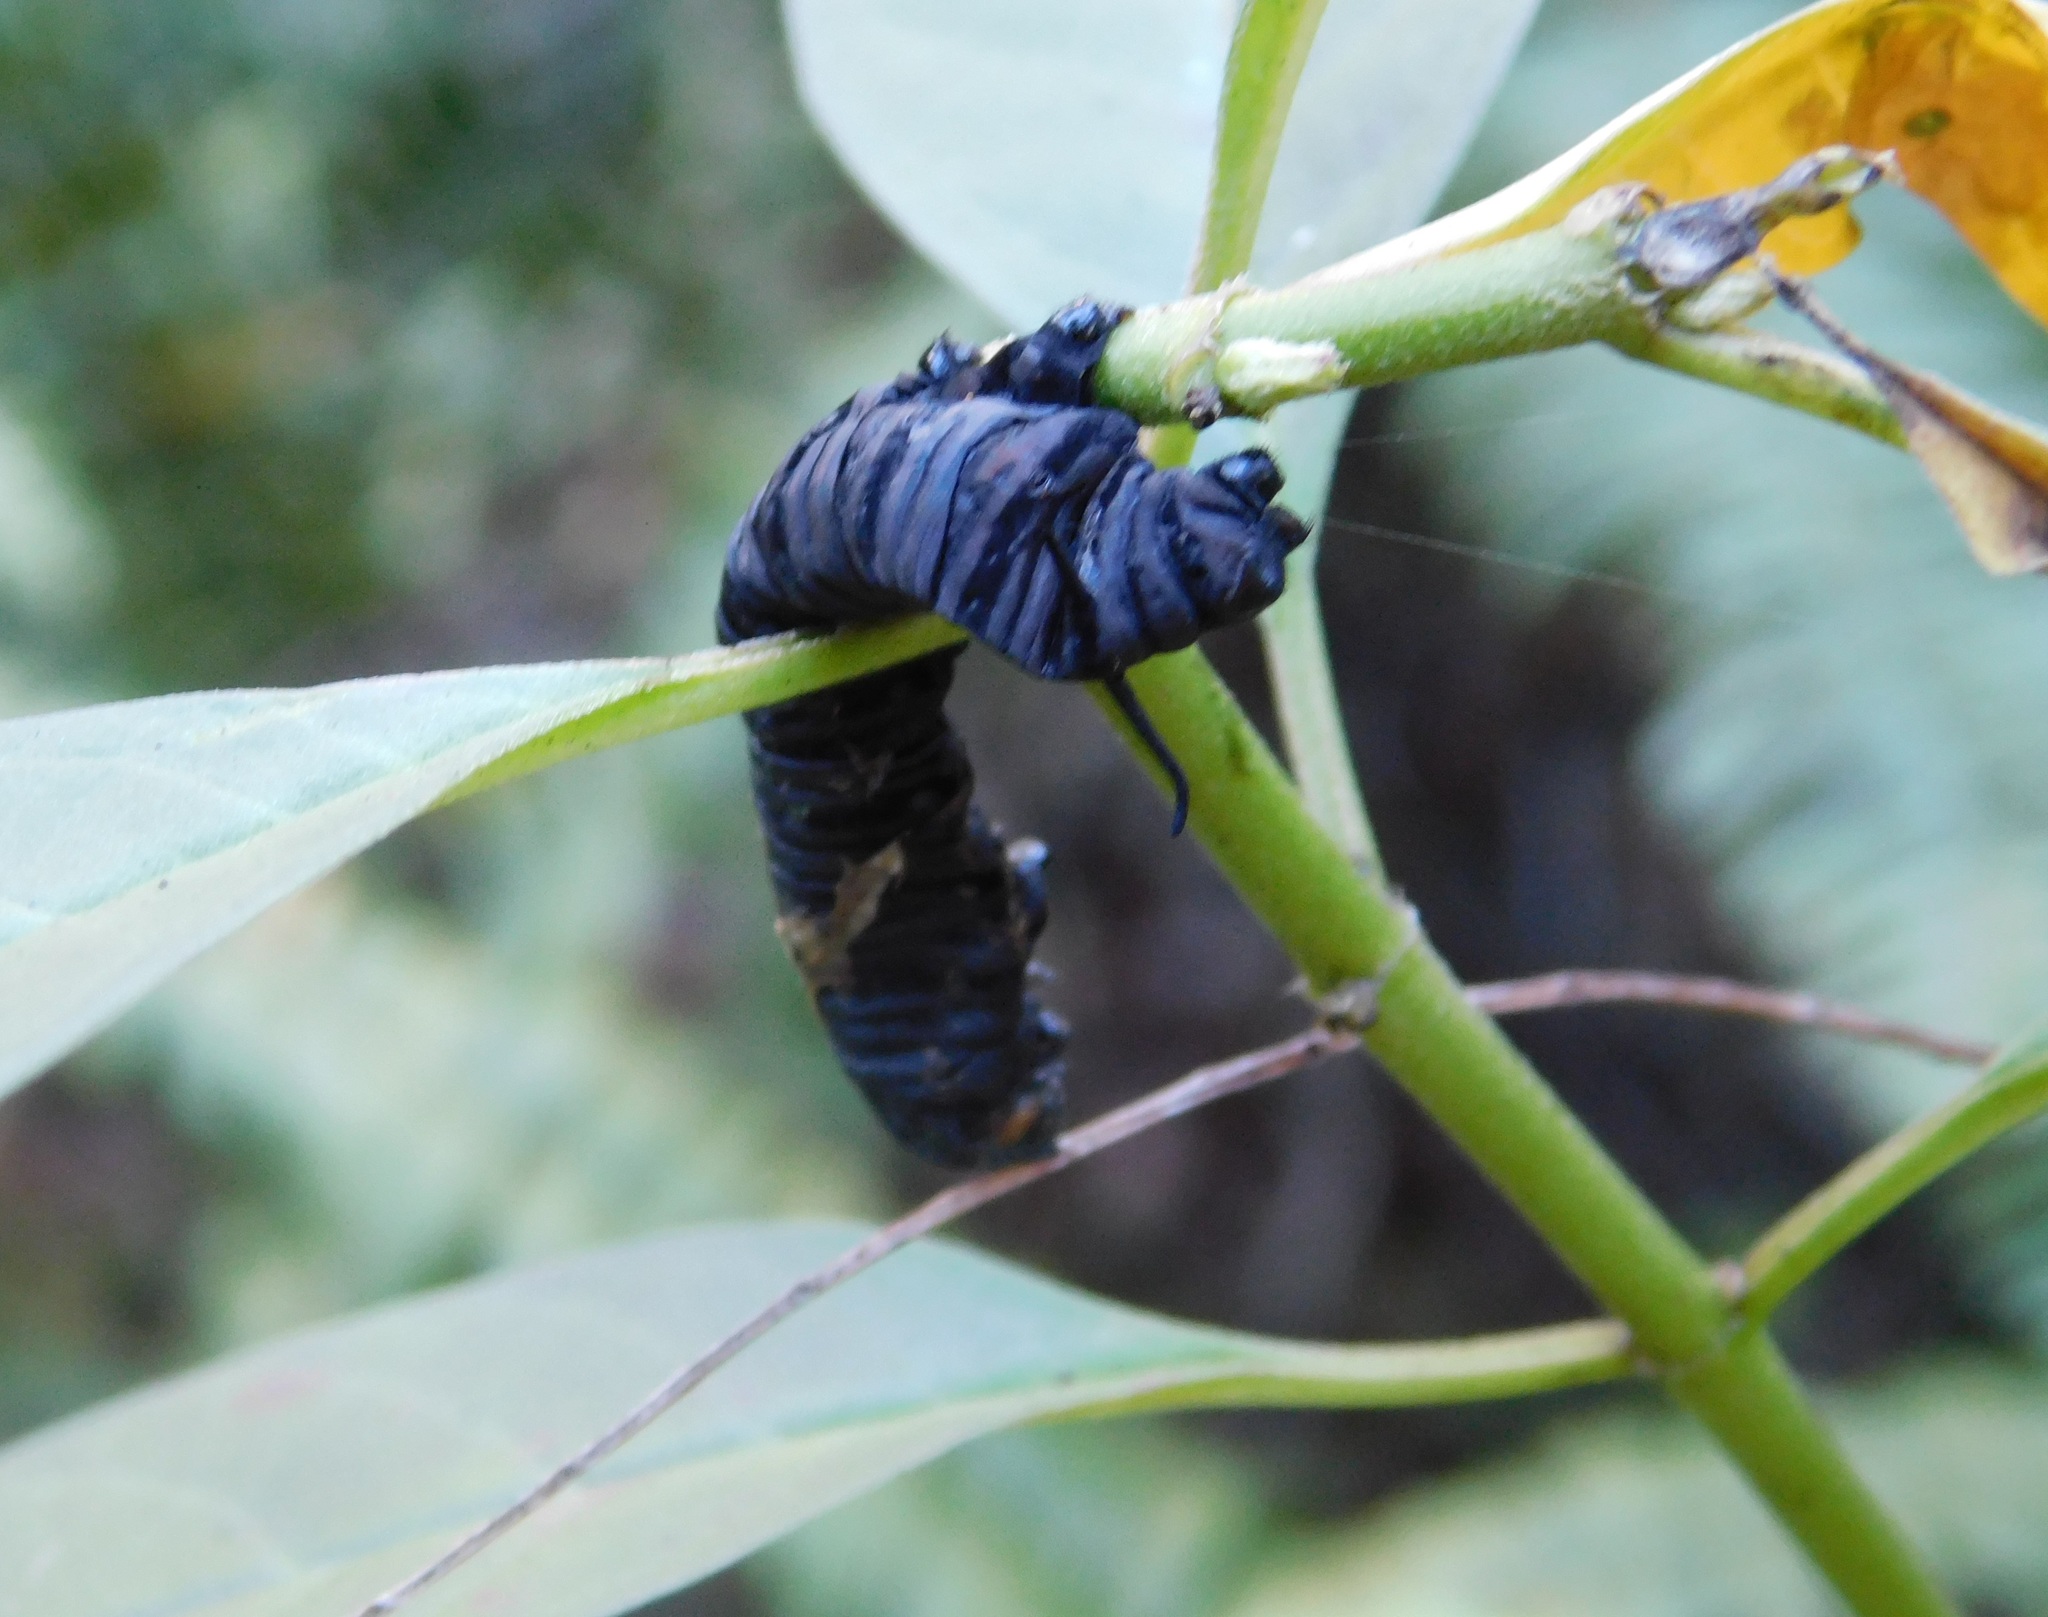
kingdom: Animalia
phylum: Arthropoda
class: Insecta
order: Lepidoptera
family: Nymphalidae
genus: Danaus
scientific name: Danaus plexippus
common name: Monarch
